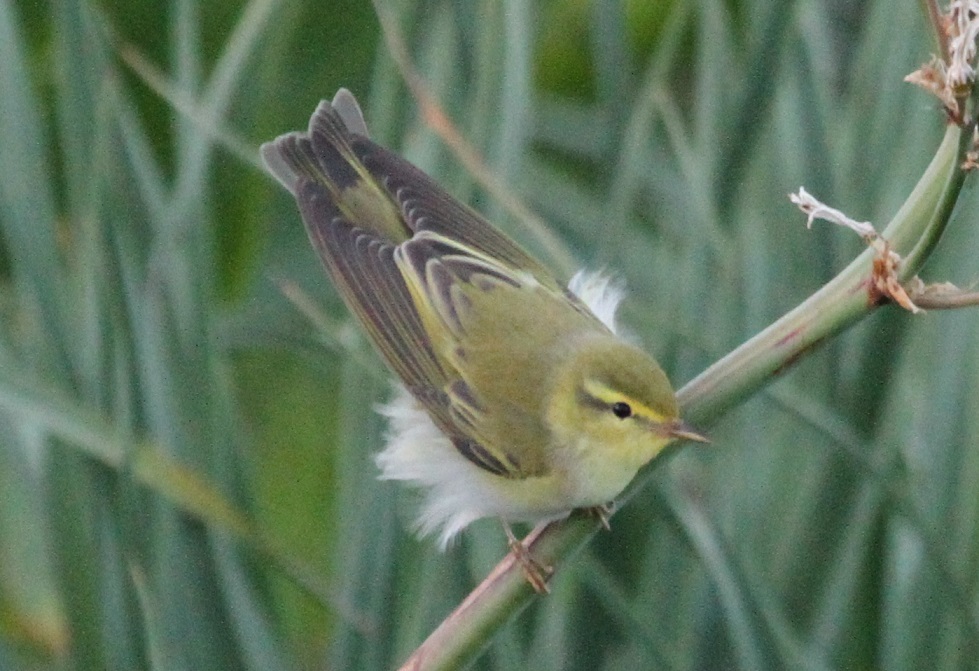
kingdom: Animalia
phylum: Chordata
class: Aves
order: Passeriformes
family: Phylloscopidae
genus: Phylloscopus
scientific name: Phylloscopus sibillatrix
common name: Wood warbler
